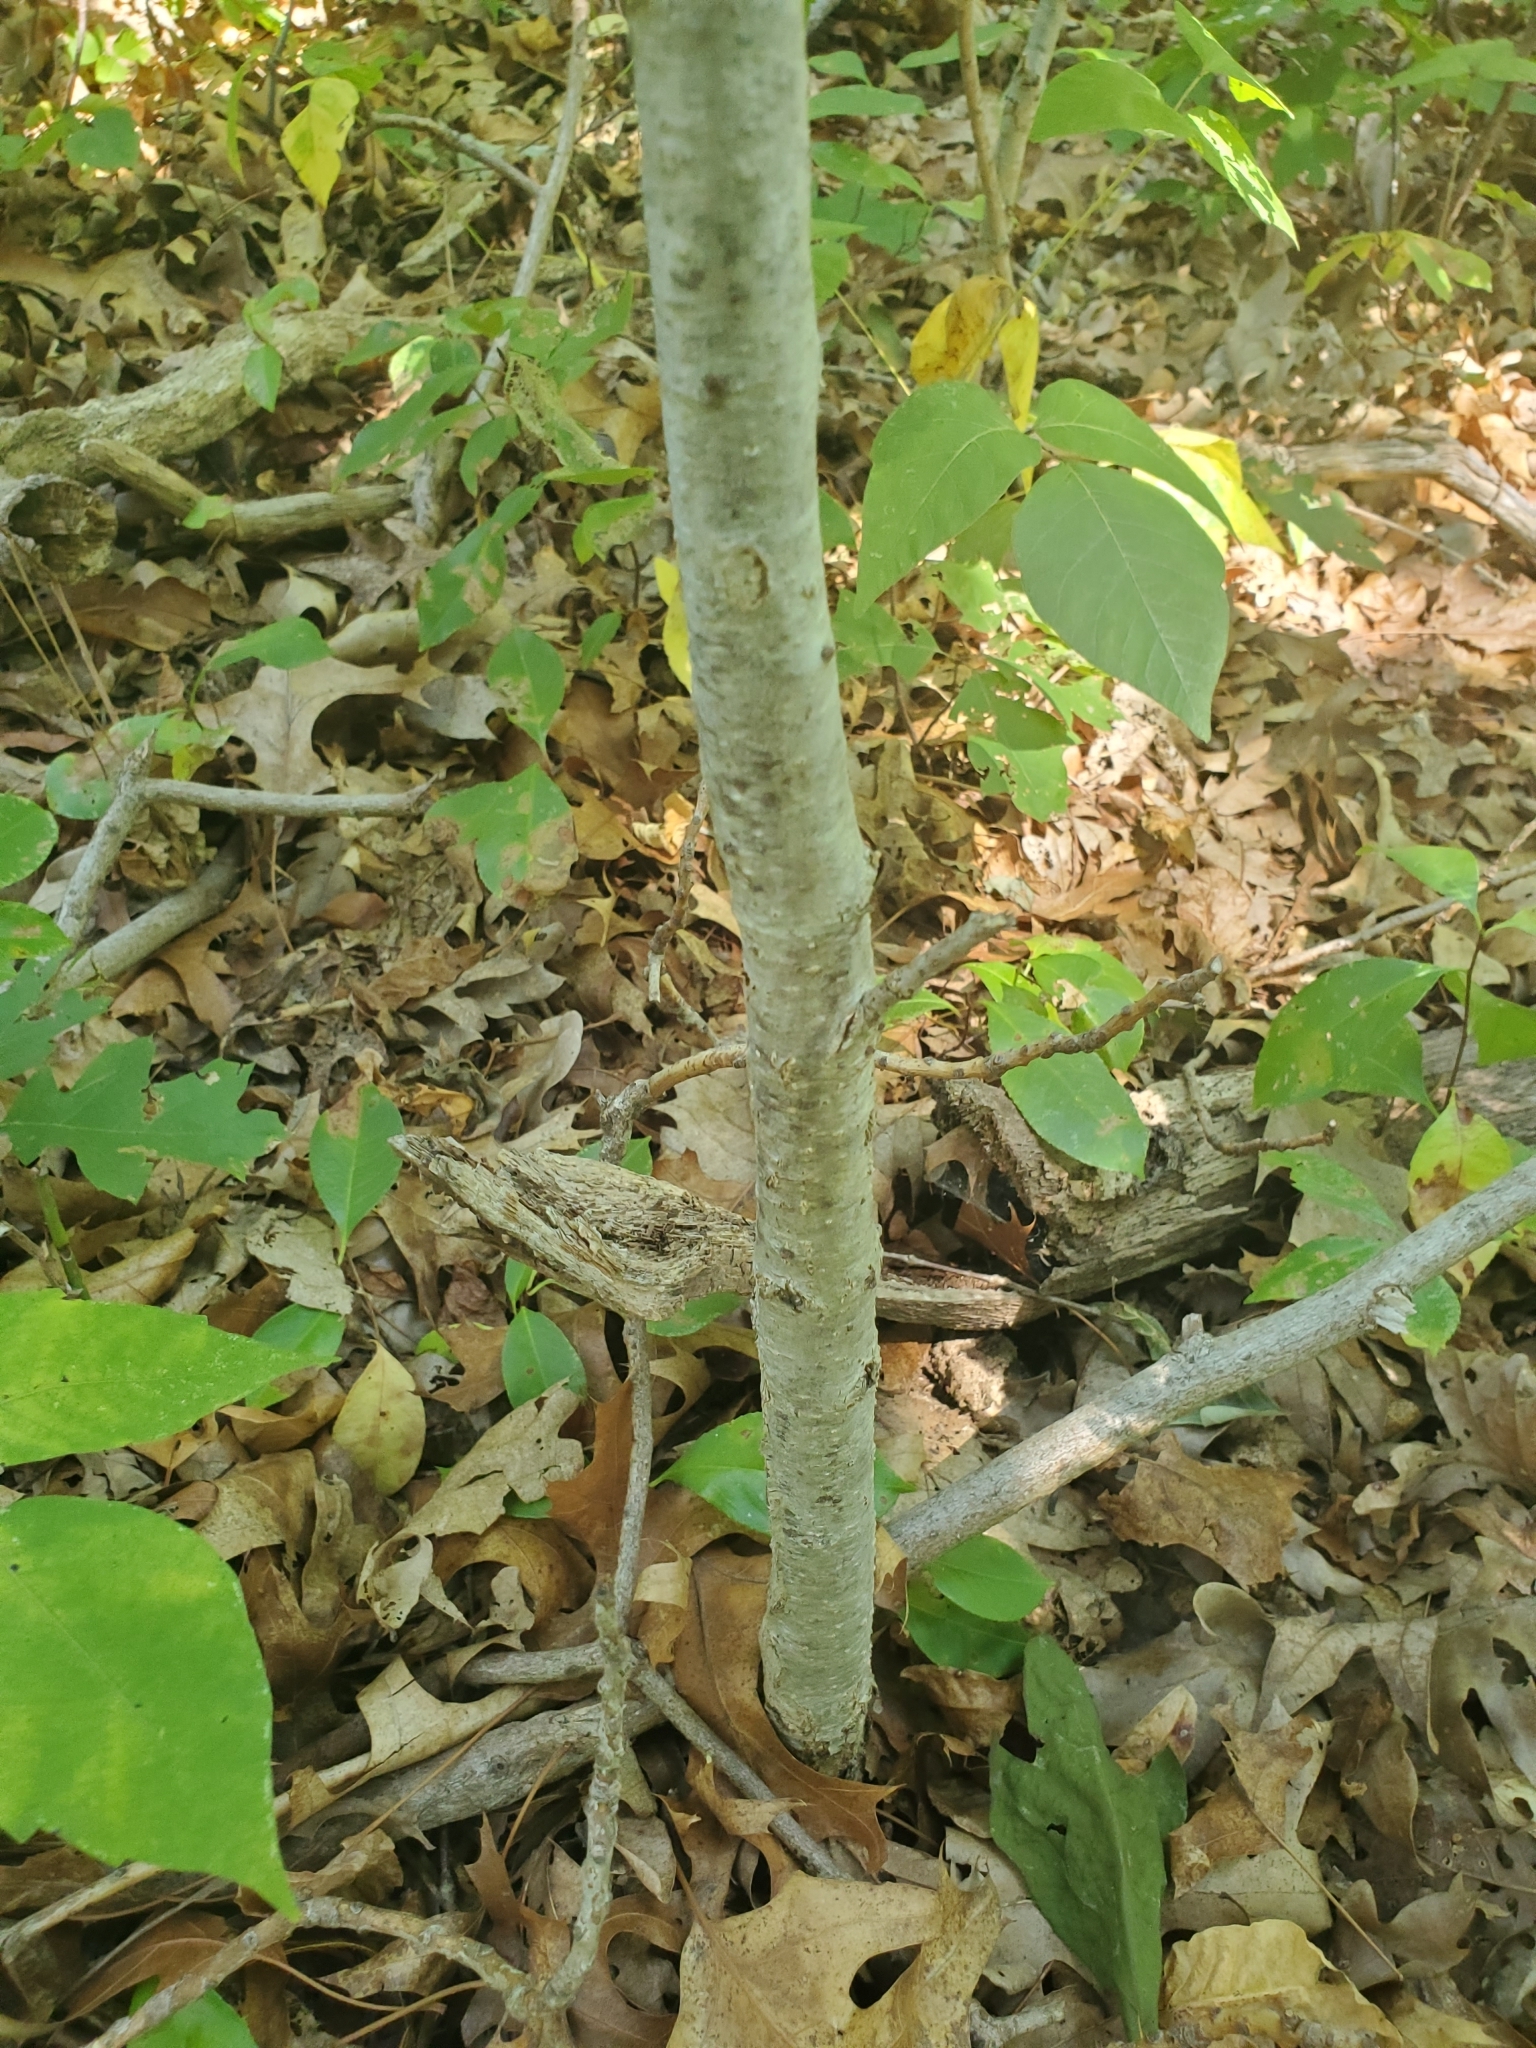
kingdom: Plantae
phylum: Tracheophyta
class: Magnoliopsida
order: Fagales
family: Fagaceae
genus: Quercus
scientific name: Quercus montana
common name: Chestnut oak
